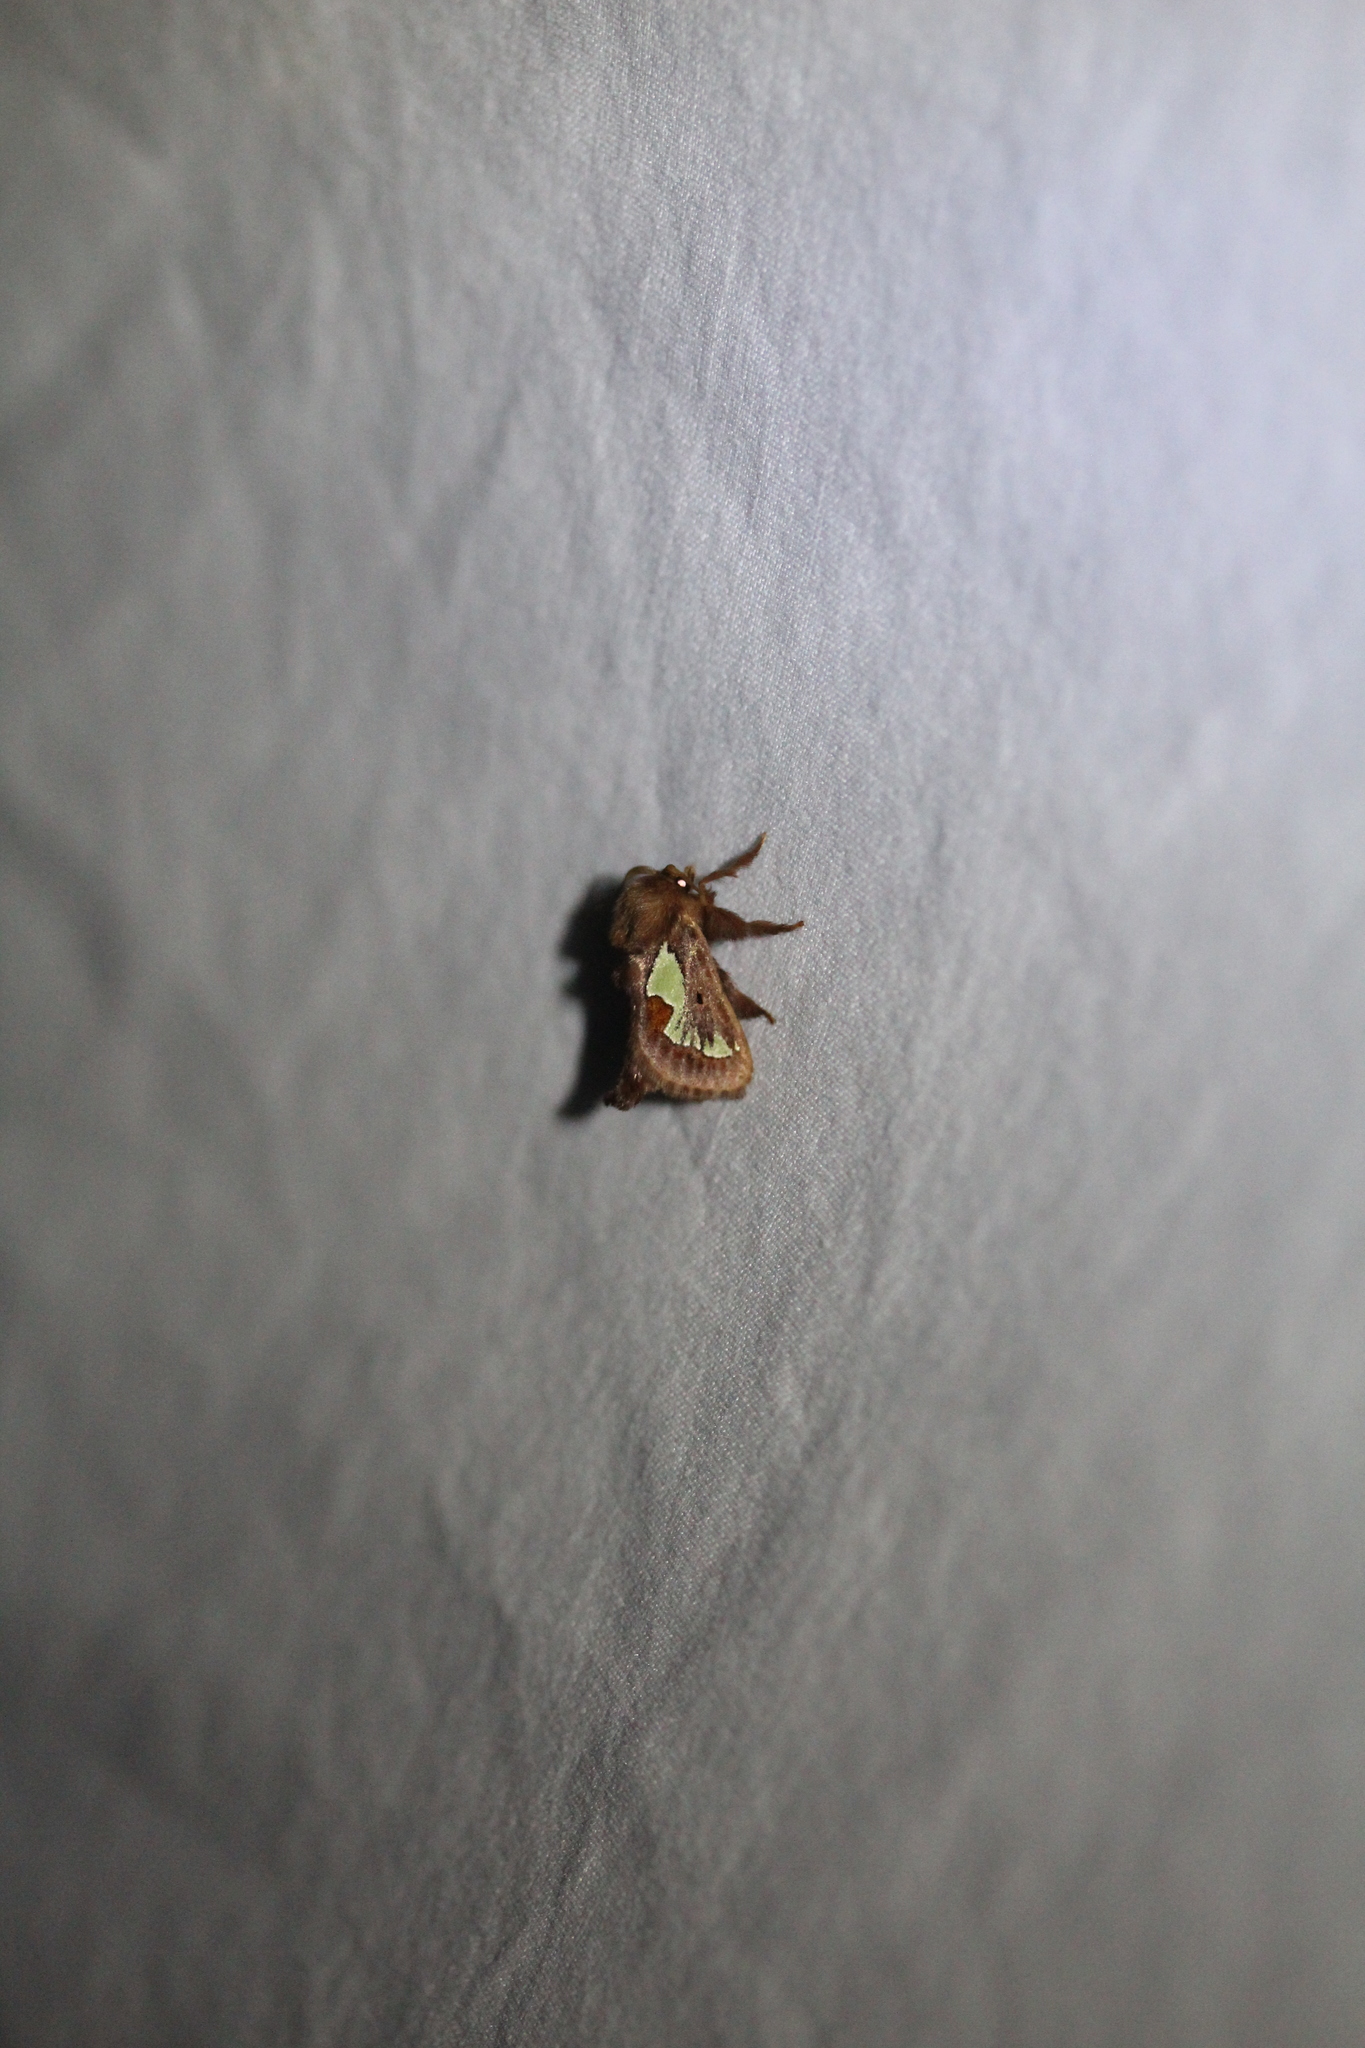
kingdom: Animalia
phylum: Arthropoda
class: Insecta
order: Lepidoptera
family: Limacodidae
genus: Euclea
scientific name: Euclea delphinii
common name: Spiny oak-slug moth
